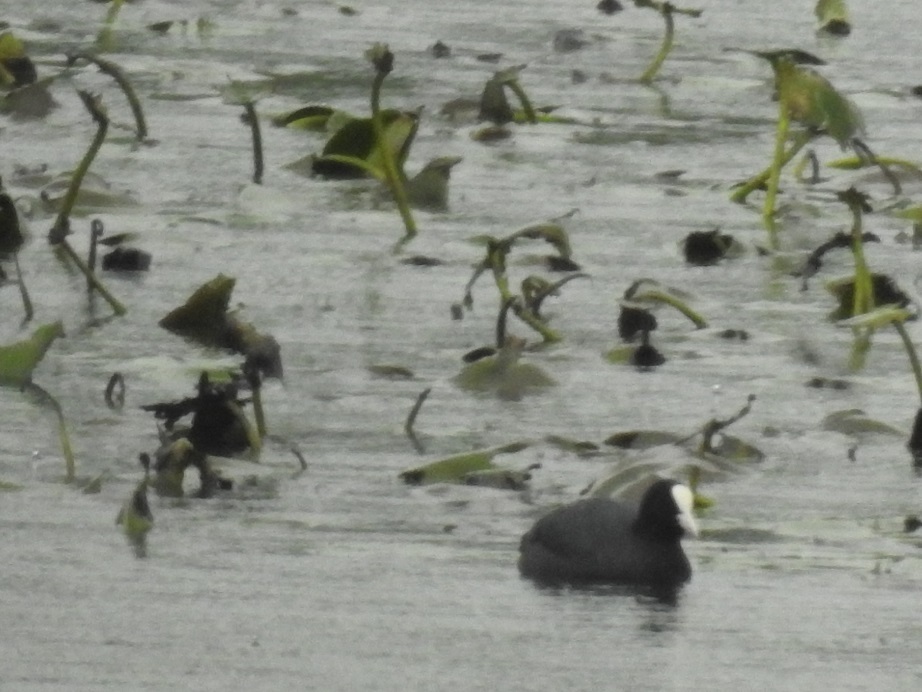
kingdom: Animalia
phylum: Chordata
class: Aves
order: Gruiformes
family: Rallidae
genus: Fulica
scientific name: Fulica atra
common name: Eurasian coot
